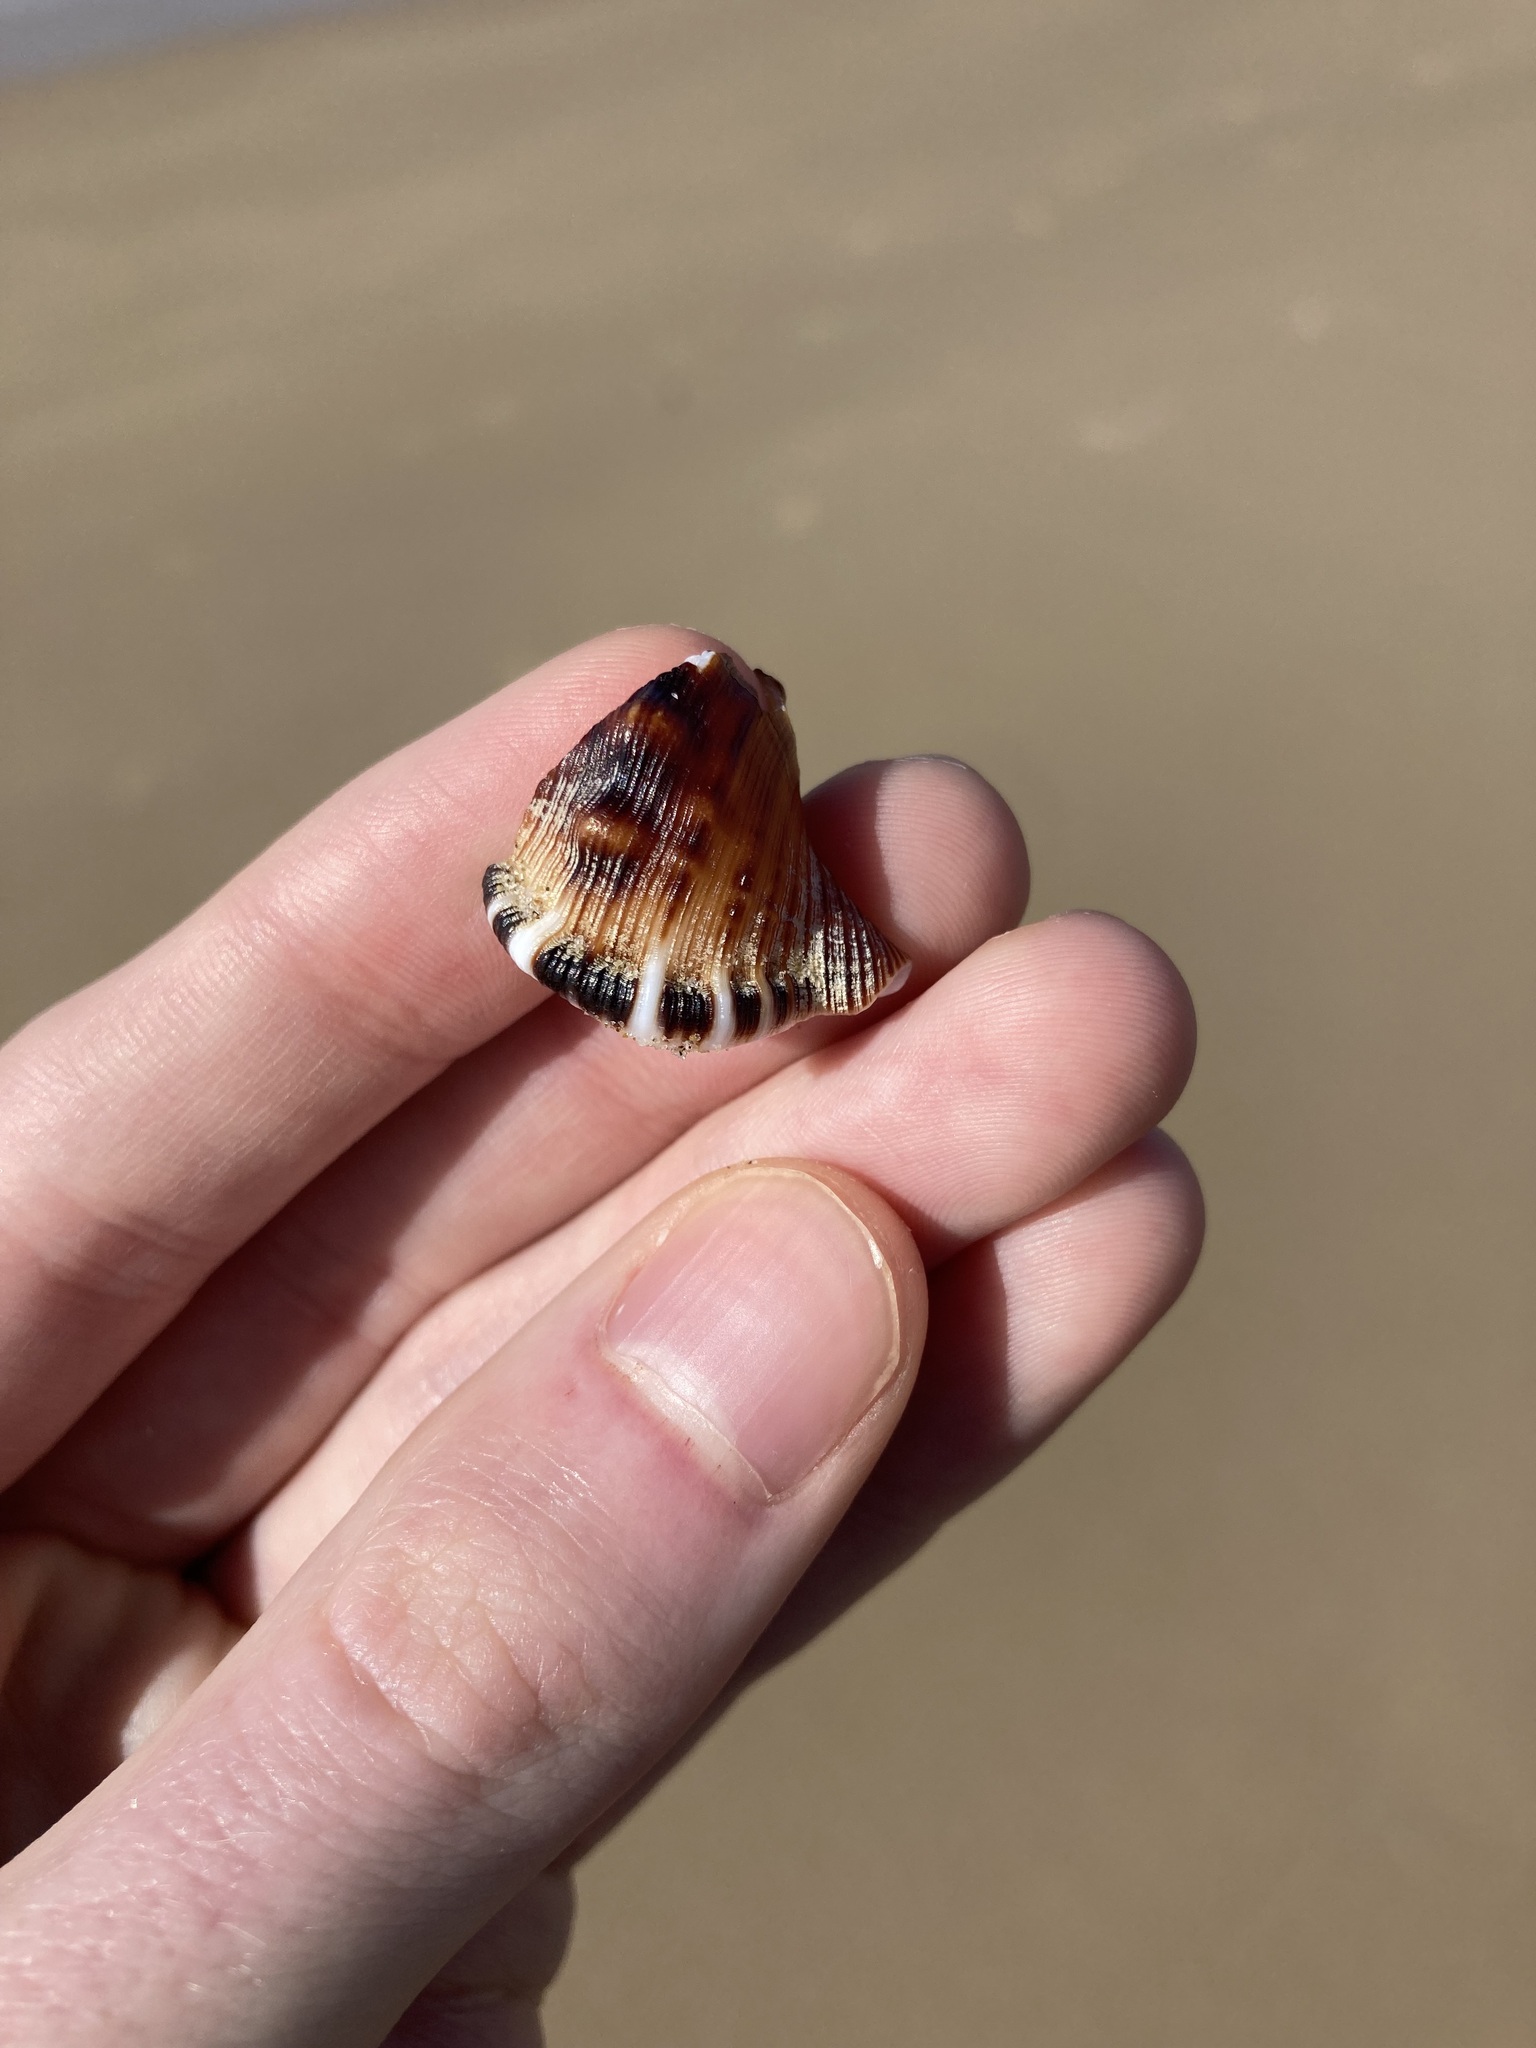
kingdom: Animalia
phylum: Mollusca
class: Gastropoda
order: Littorinimorpha
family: Ranellidae
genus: Ranella
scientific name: Ranella australasia
